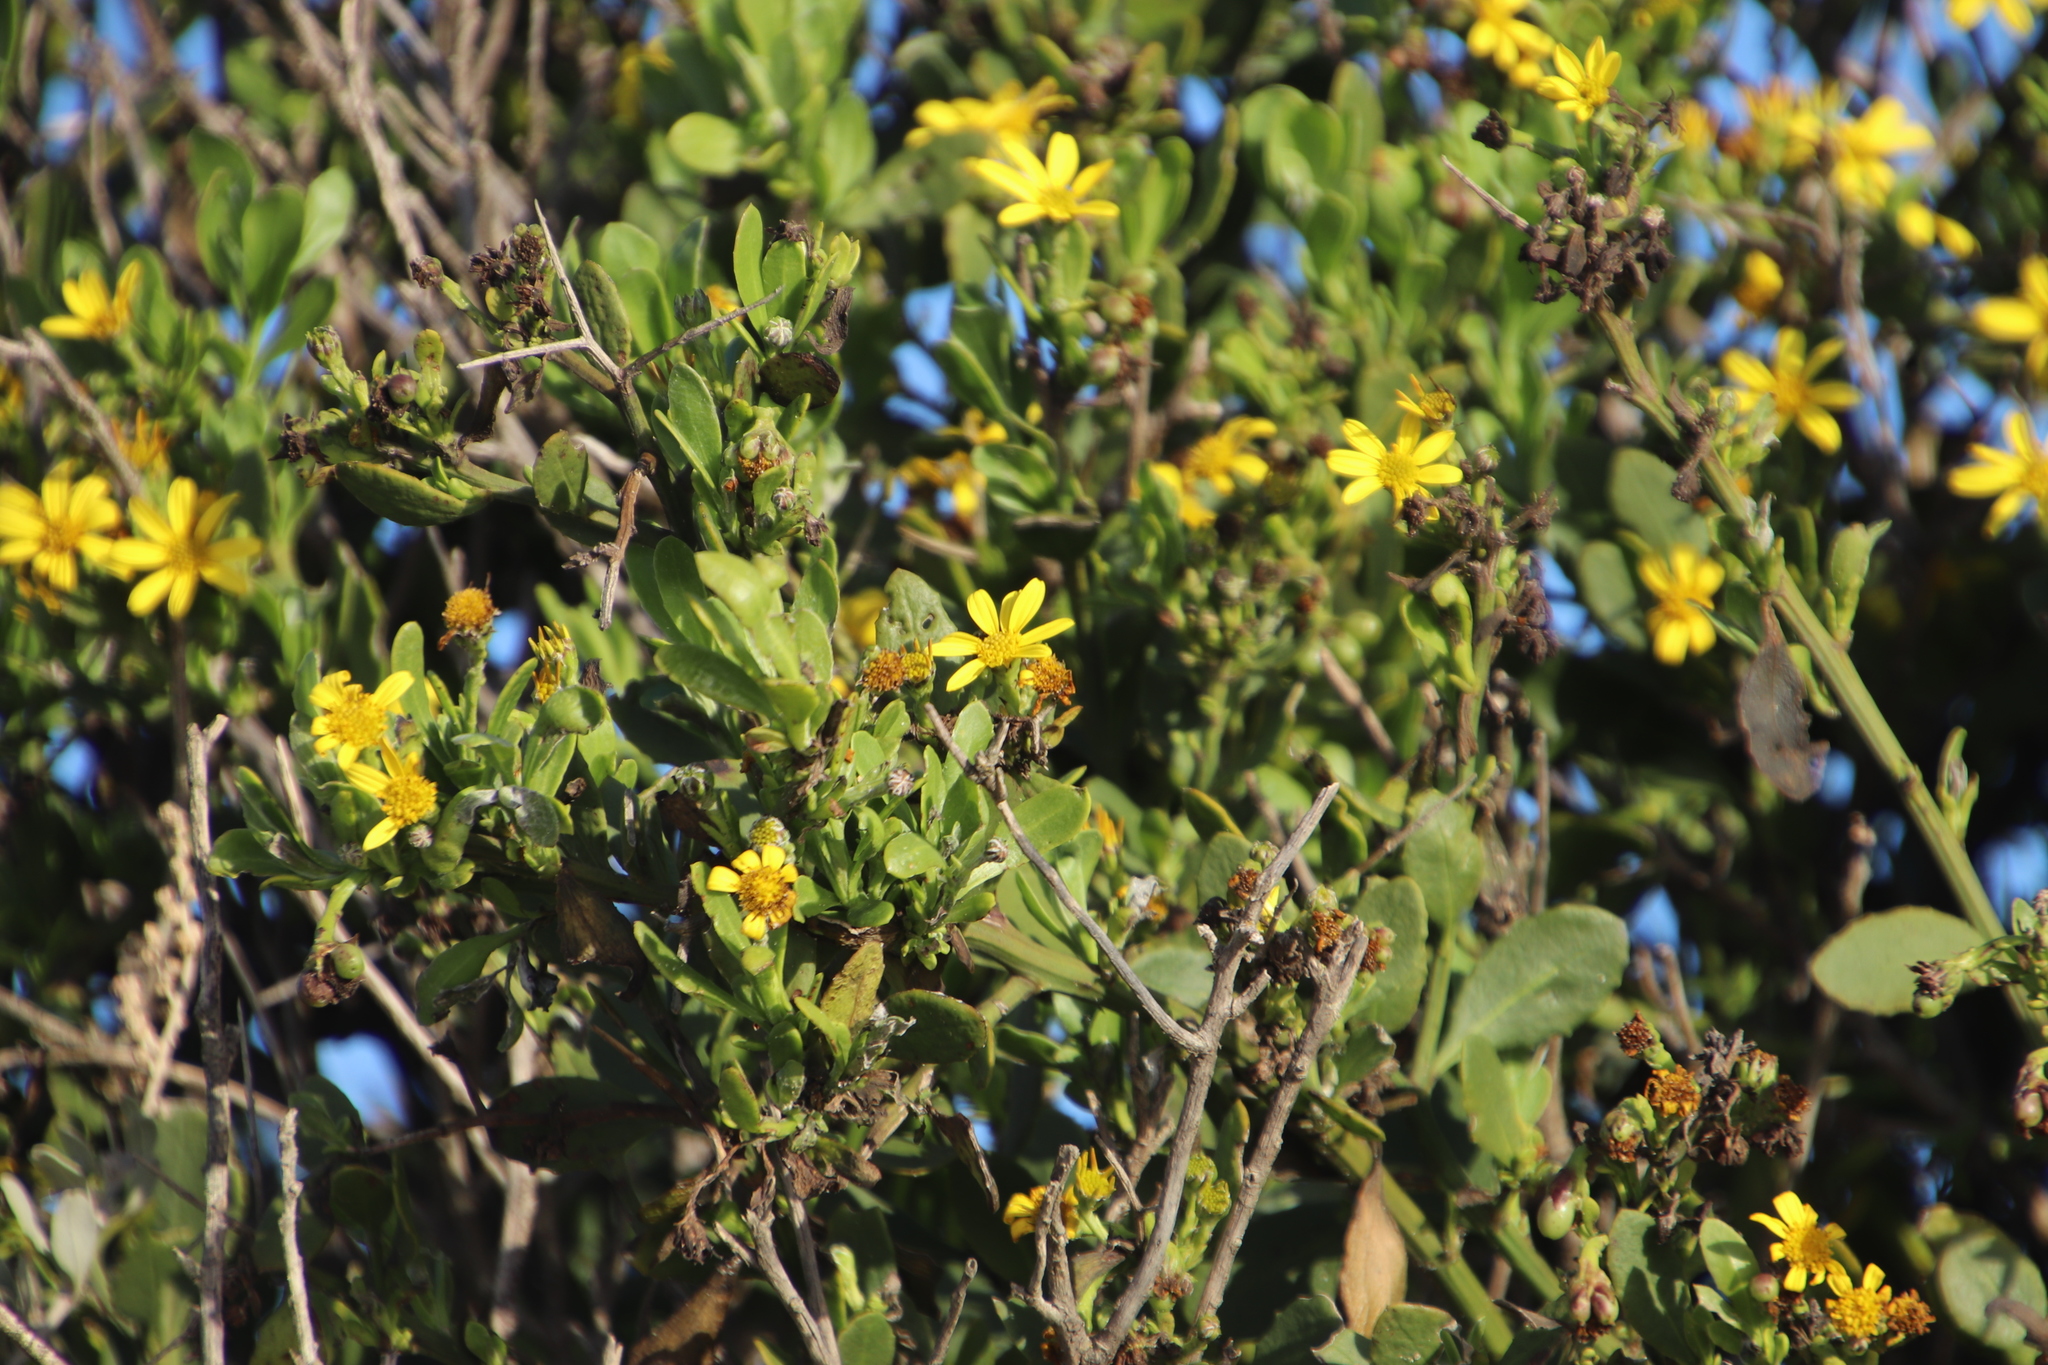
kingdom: Plantae
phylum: Tracheophyta
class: Magnoliopsida
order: Asterales
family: Asteraceae
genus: Osteospermum
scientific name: Osteospermum moniliferum
